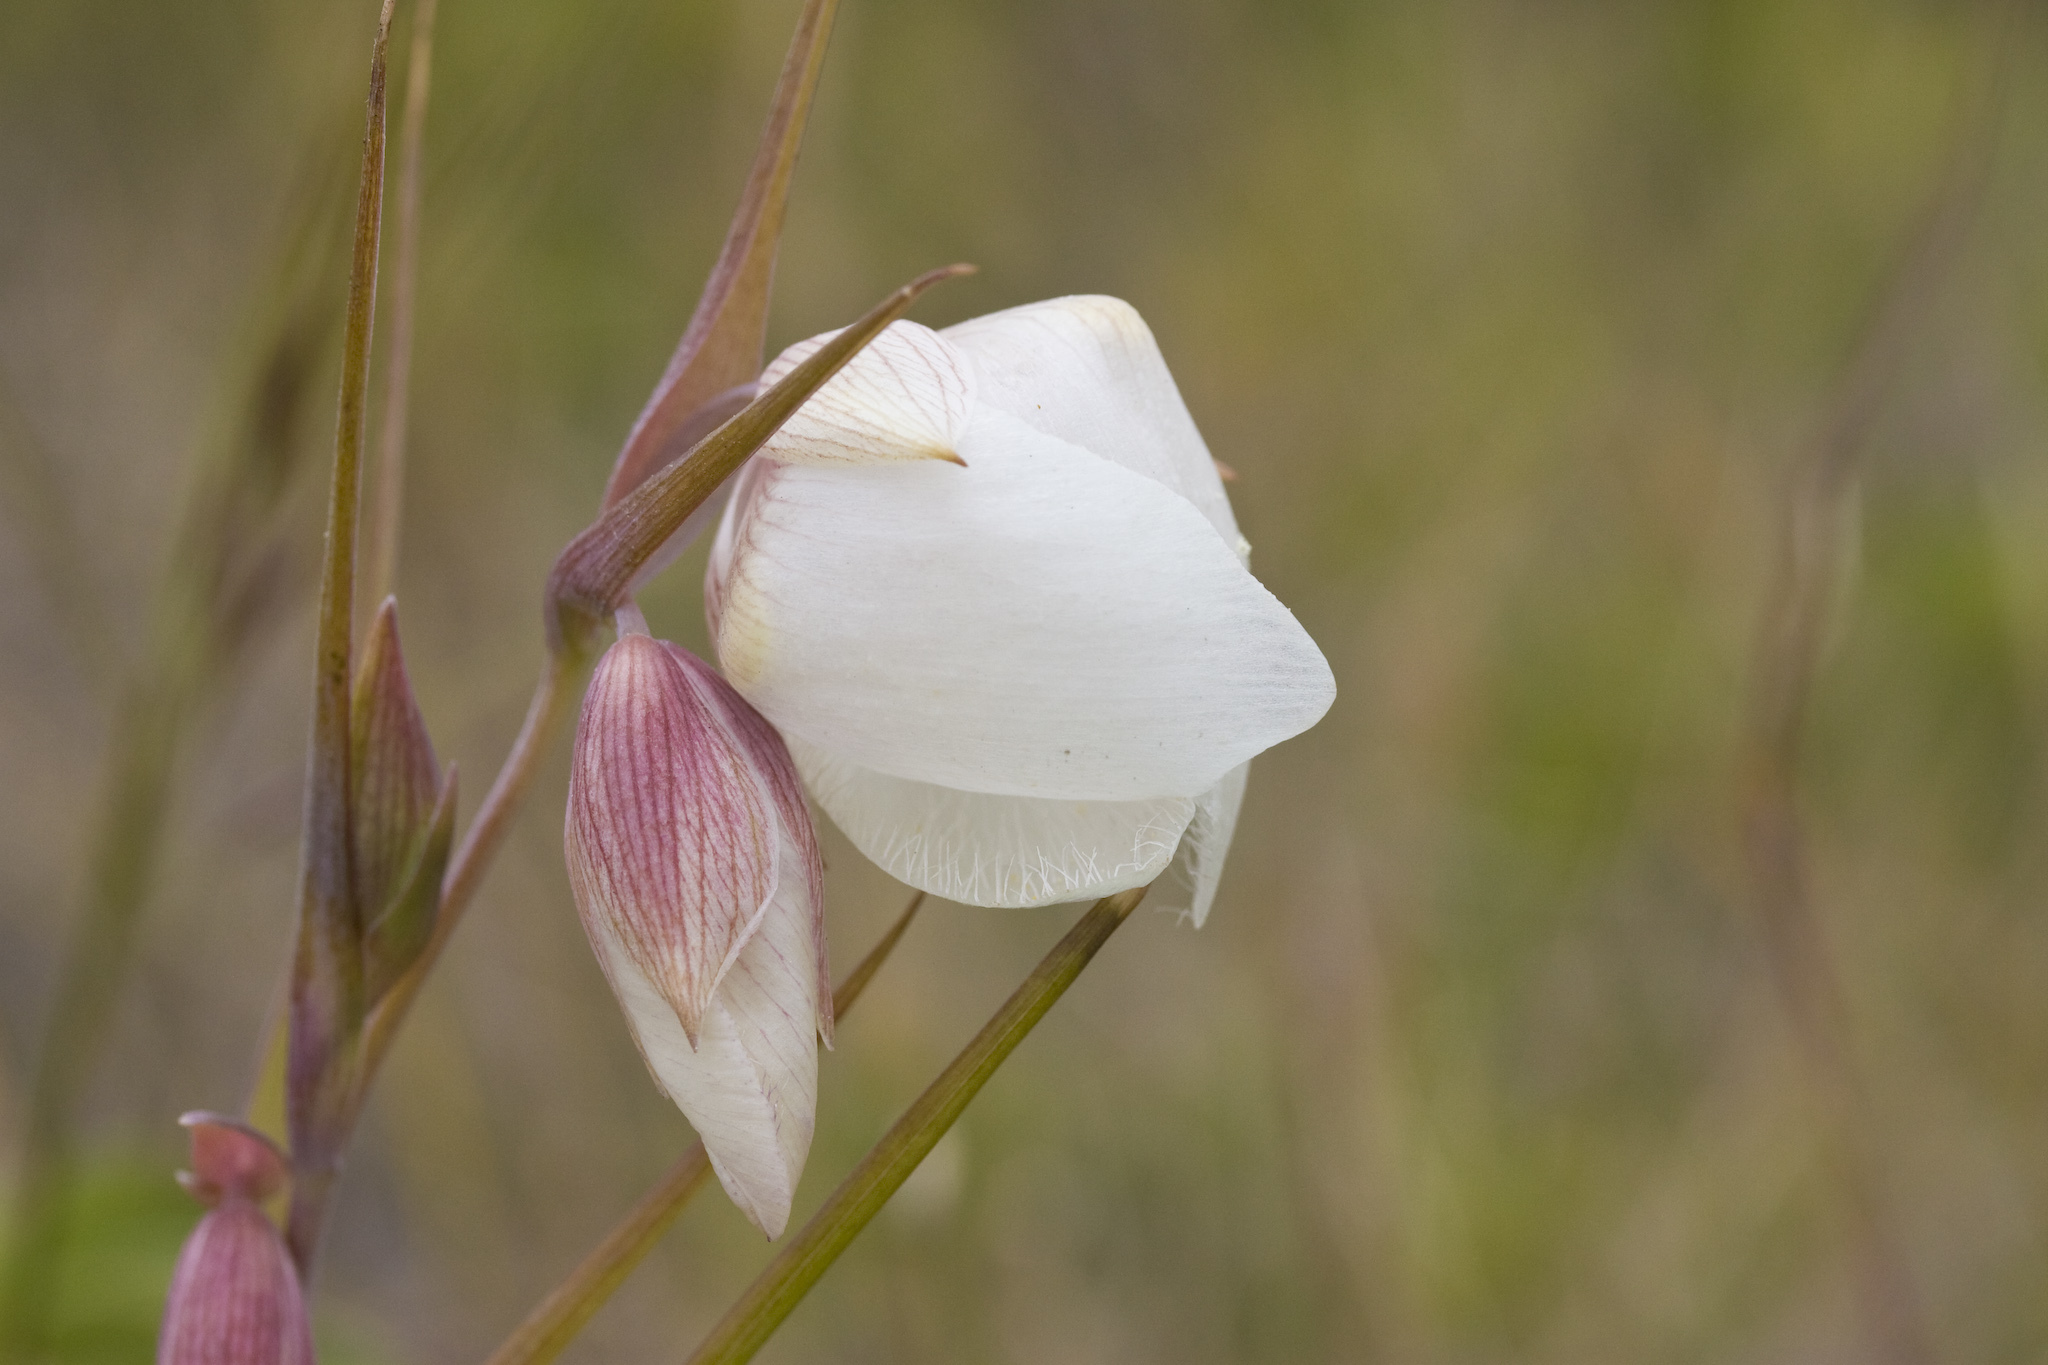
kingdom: Plantae
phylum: Tracheophyta
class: Liliopsida
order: Liliales
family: Liliaceae
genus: Calochortus
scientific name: Calochortus albus
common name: Fairy-lantern
